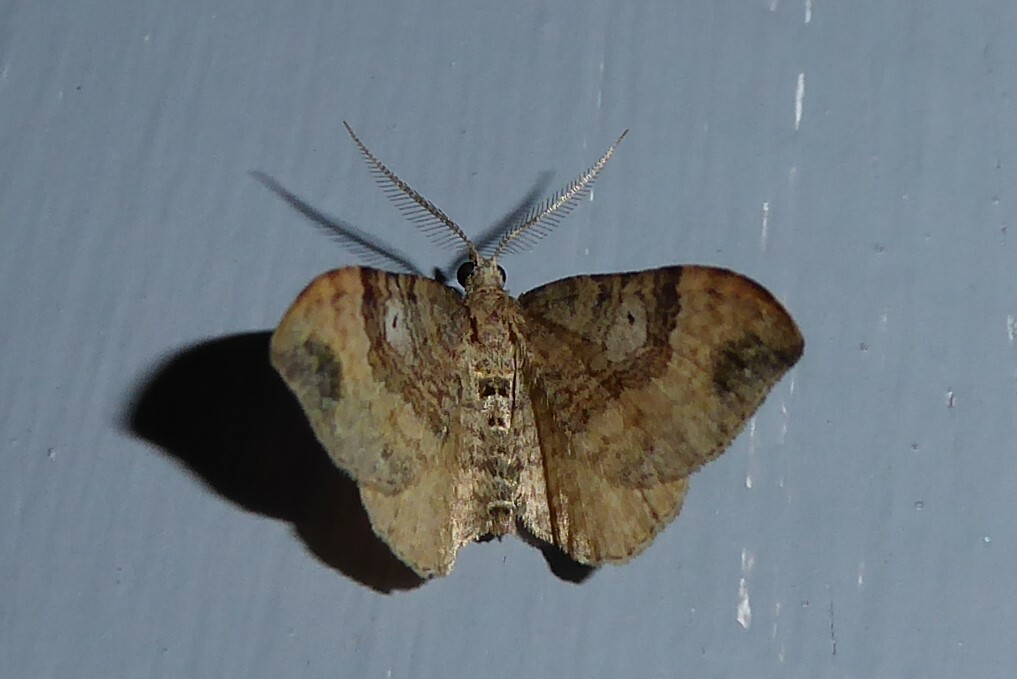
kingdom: Animalia
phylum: Arthropoda
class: Insecta
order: Lepidoptera
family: Geometridae
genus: Homodotis
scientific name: Homodotis megaspilata
